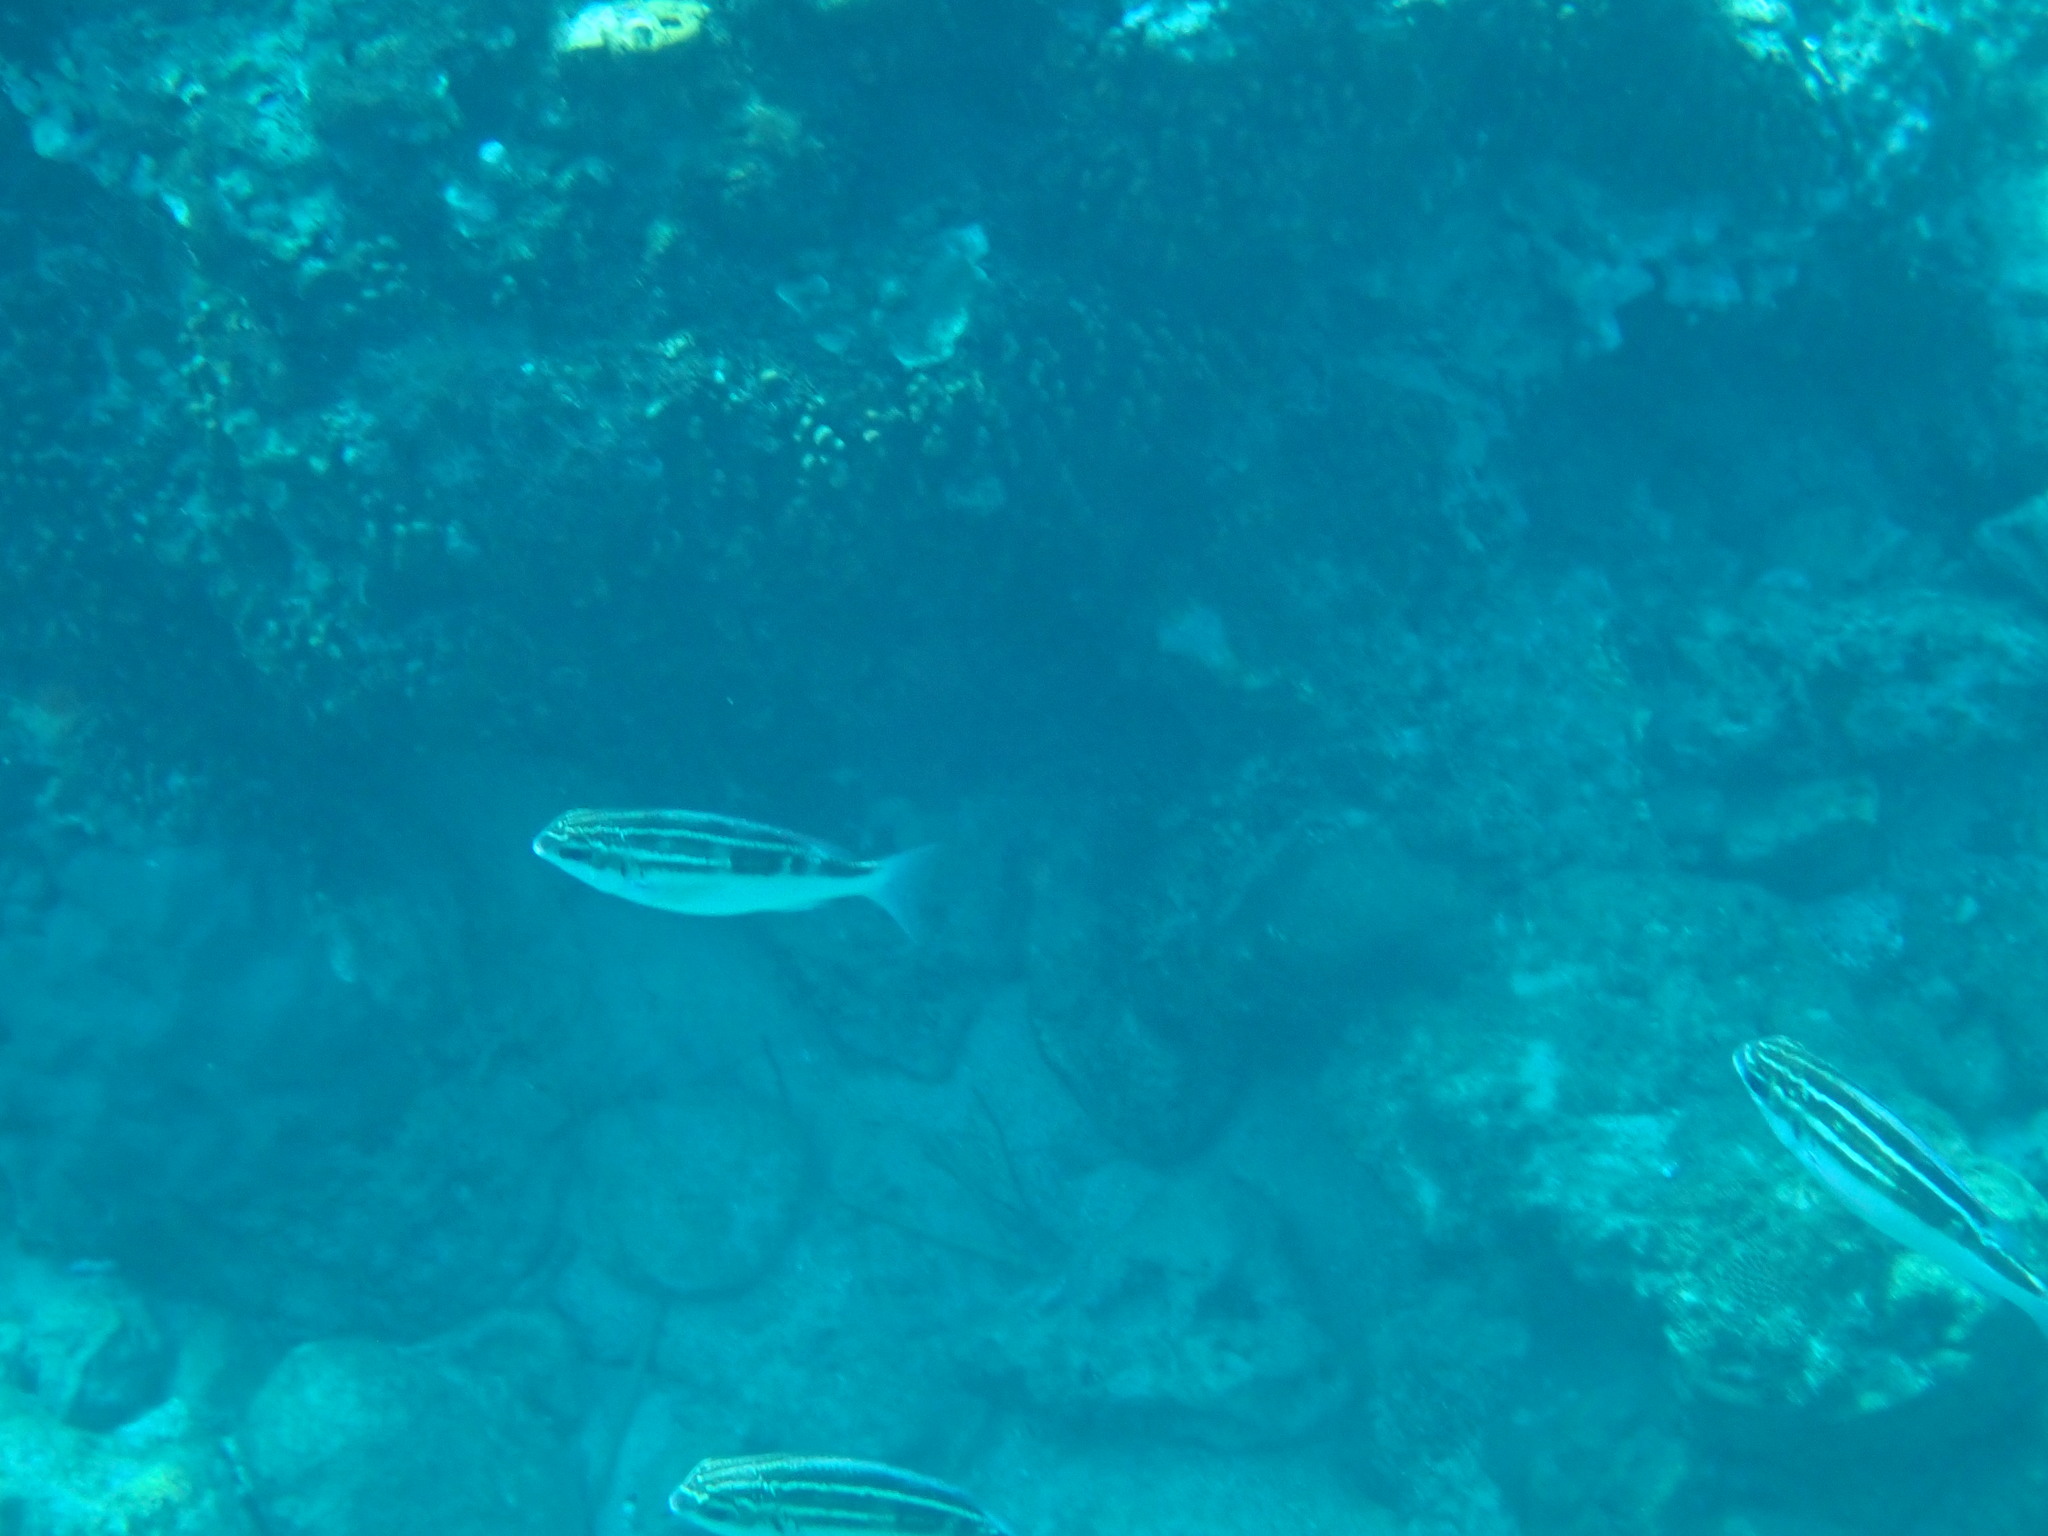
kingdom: Animalia
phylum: Chordata
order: Perciformes
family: Nemipteridae
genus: Scolopsis
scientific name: Scolopsis lineata
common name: Striped monocle bream
